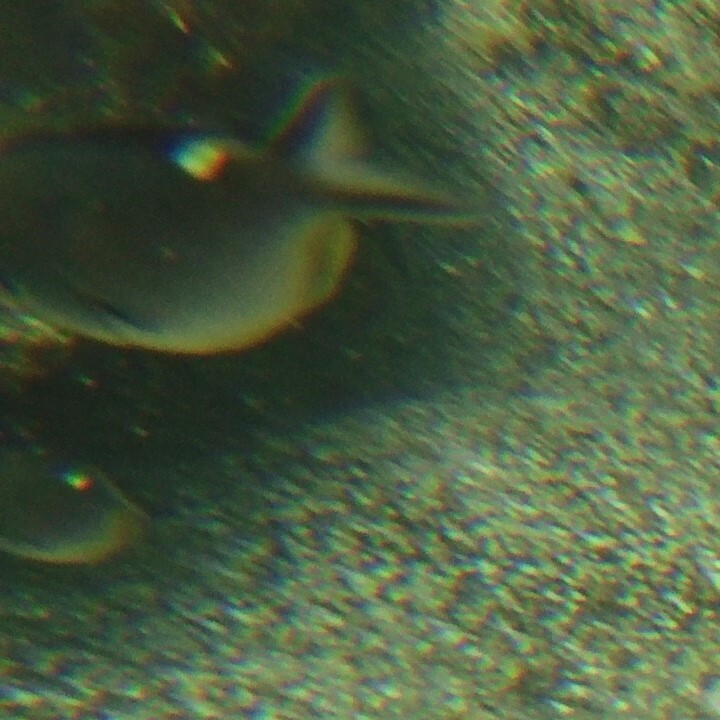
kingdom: Animalia
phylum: Chordata
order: Perciformes
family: Pomacentridae
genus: Chromis
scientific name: Chromis atrilobata
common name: Scissortail damselfish
